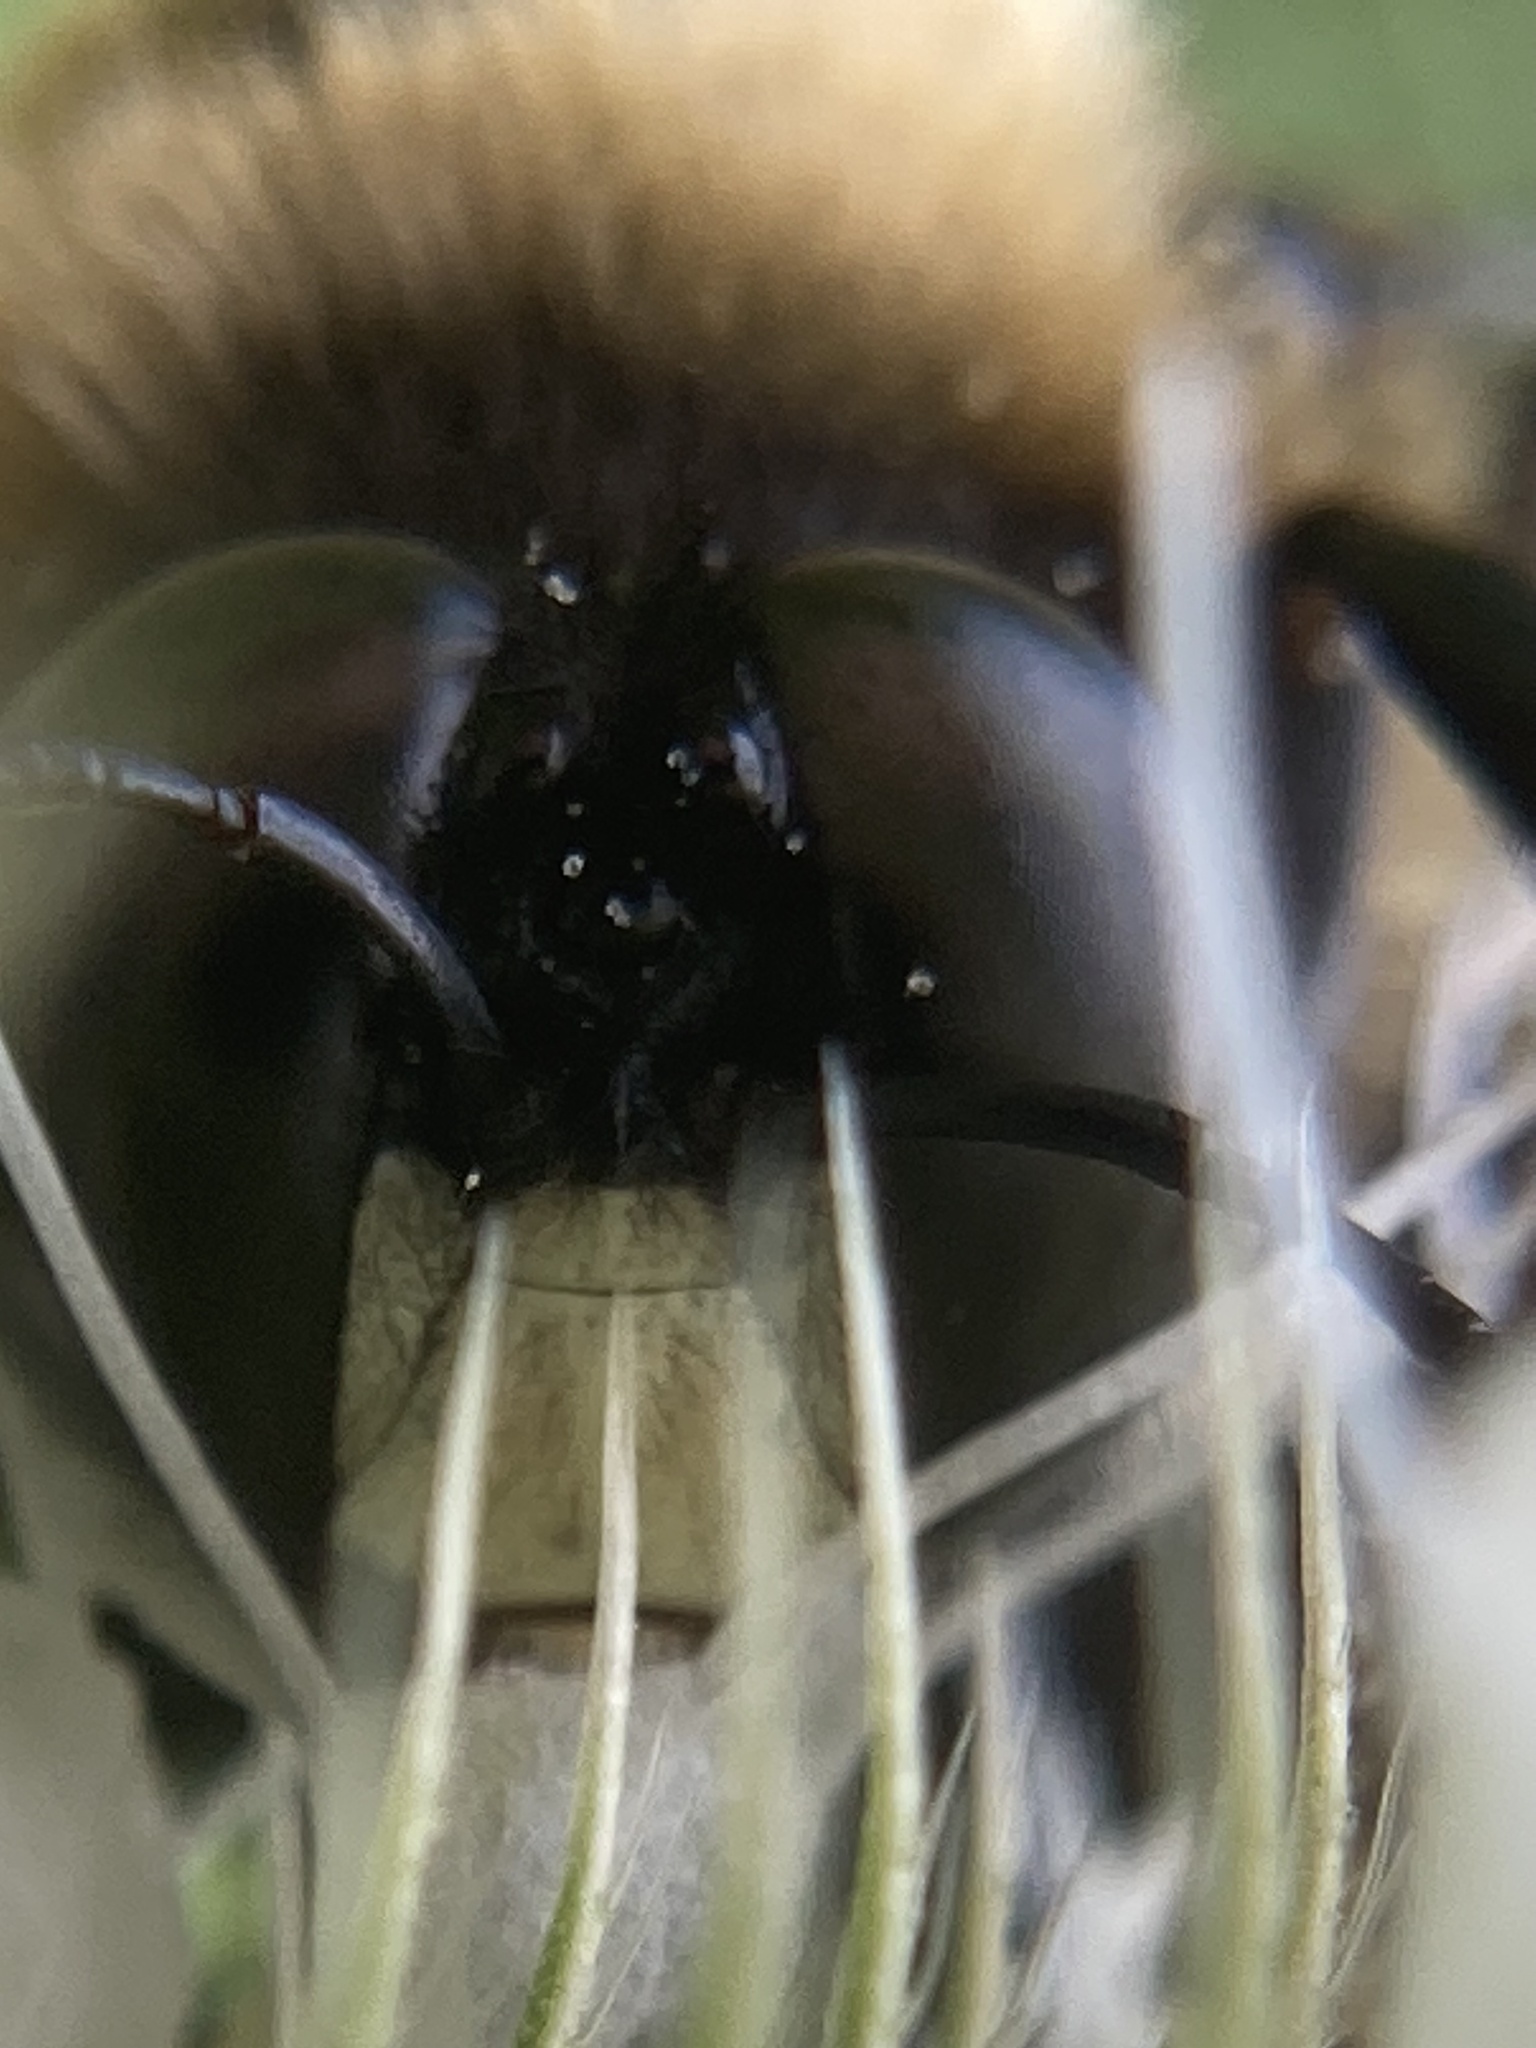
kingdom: Animalia
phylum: Arthropoda
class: Insecta
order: Hymenoptera
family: Apidae
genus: Xylocopa
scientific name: Xylocopa virginica
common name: Carpenter bee
